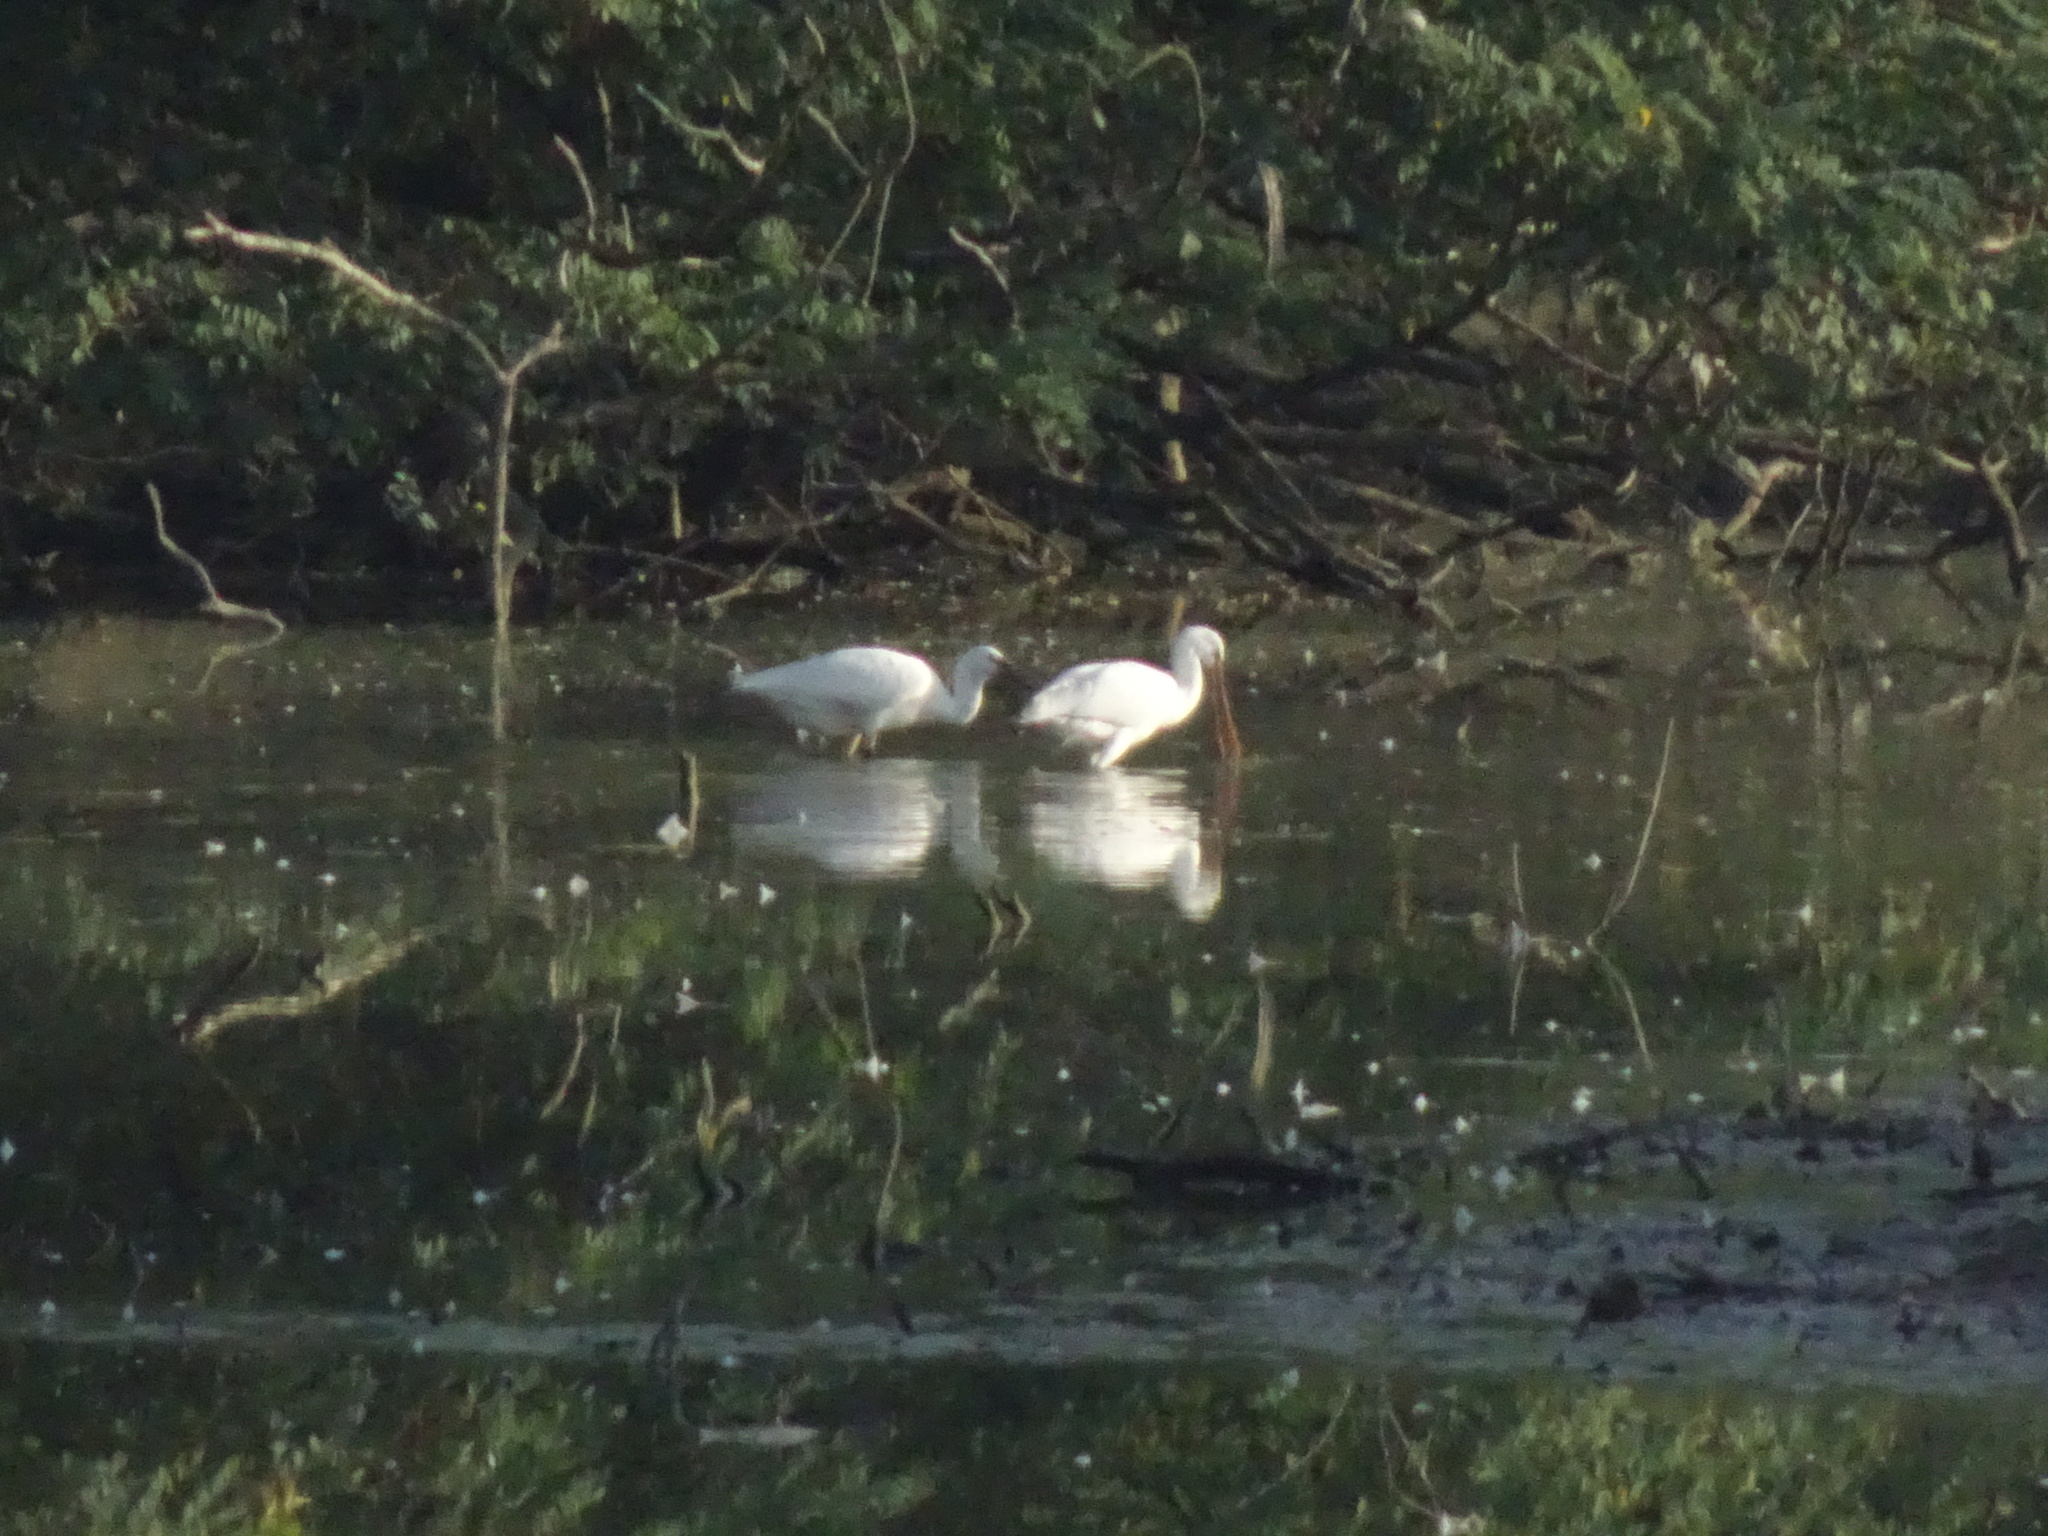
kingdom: Animalia
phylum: Chordata
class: Aves
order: Pelecaniformes
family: Threskiornithidae
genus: Platalea
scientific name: Platalea leucorodia
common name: Eurasian spoonbill
